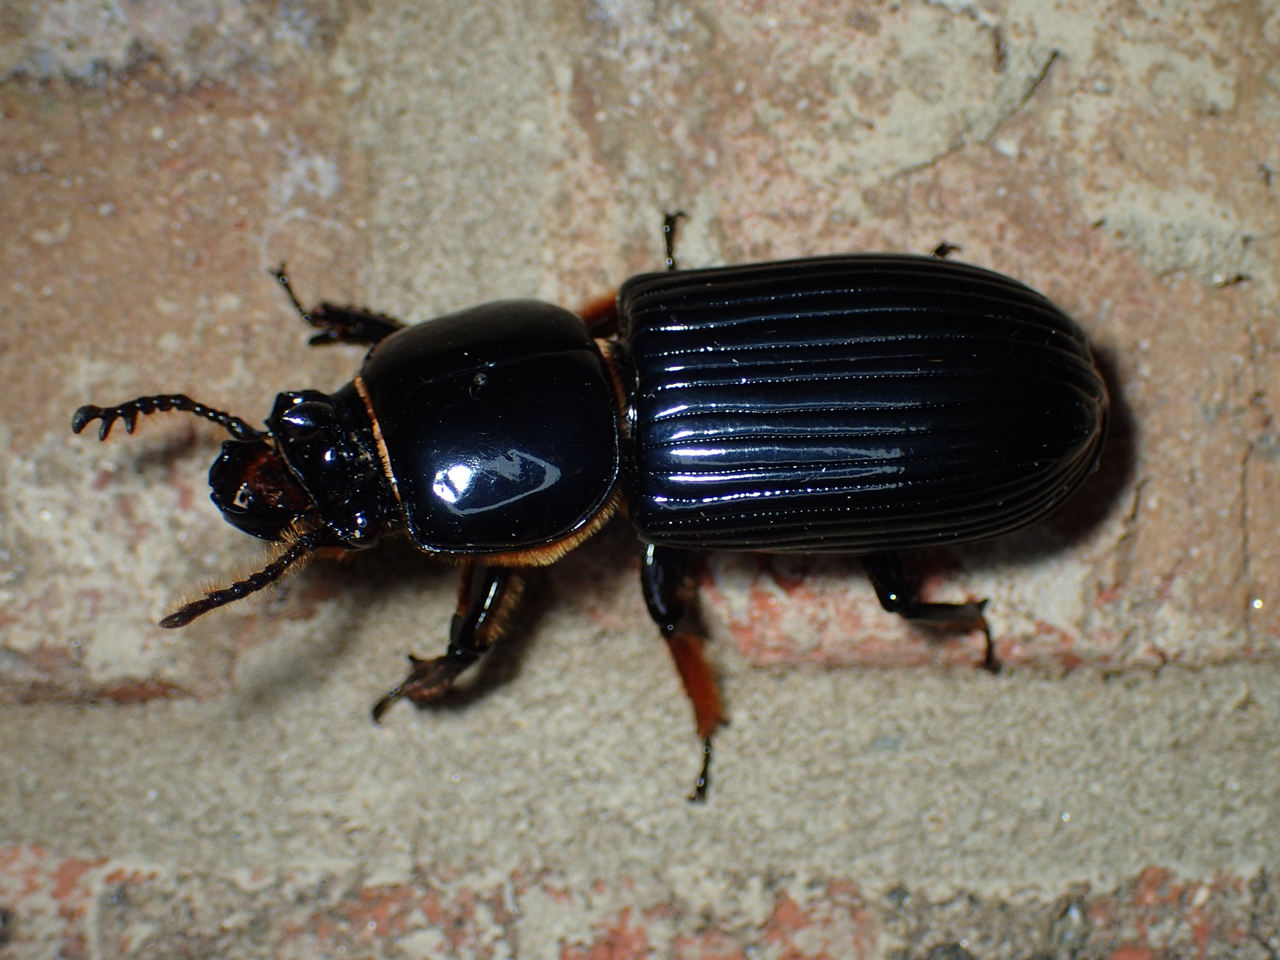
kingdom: Animalia
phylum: Arthropoda
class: Insecta
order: Coleoptera
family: Passalidae
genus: Odontotaenius
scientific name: Odontotaenius disjunctus
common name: Patent leather beetle
